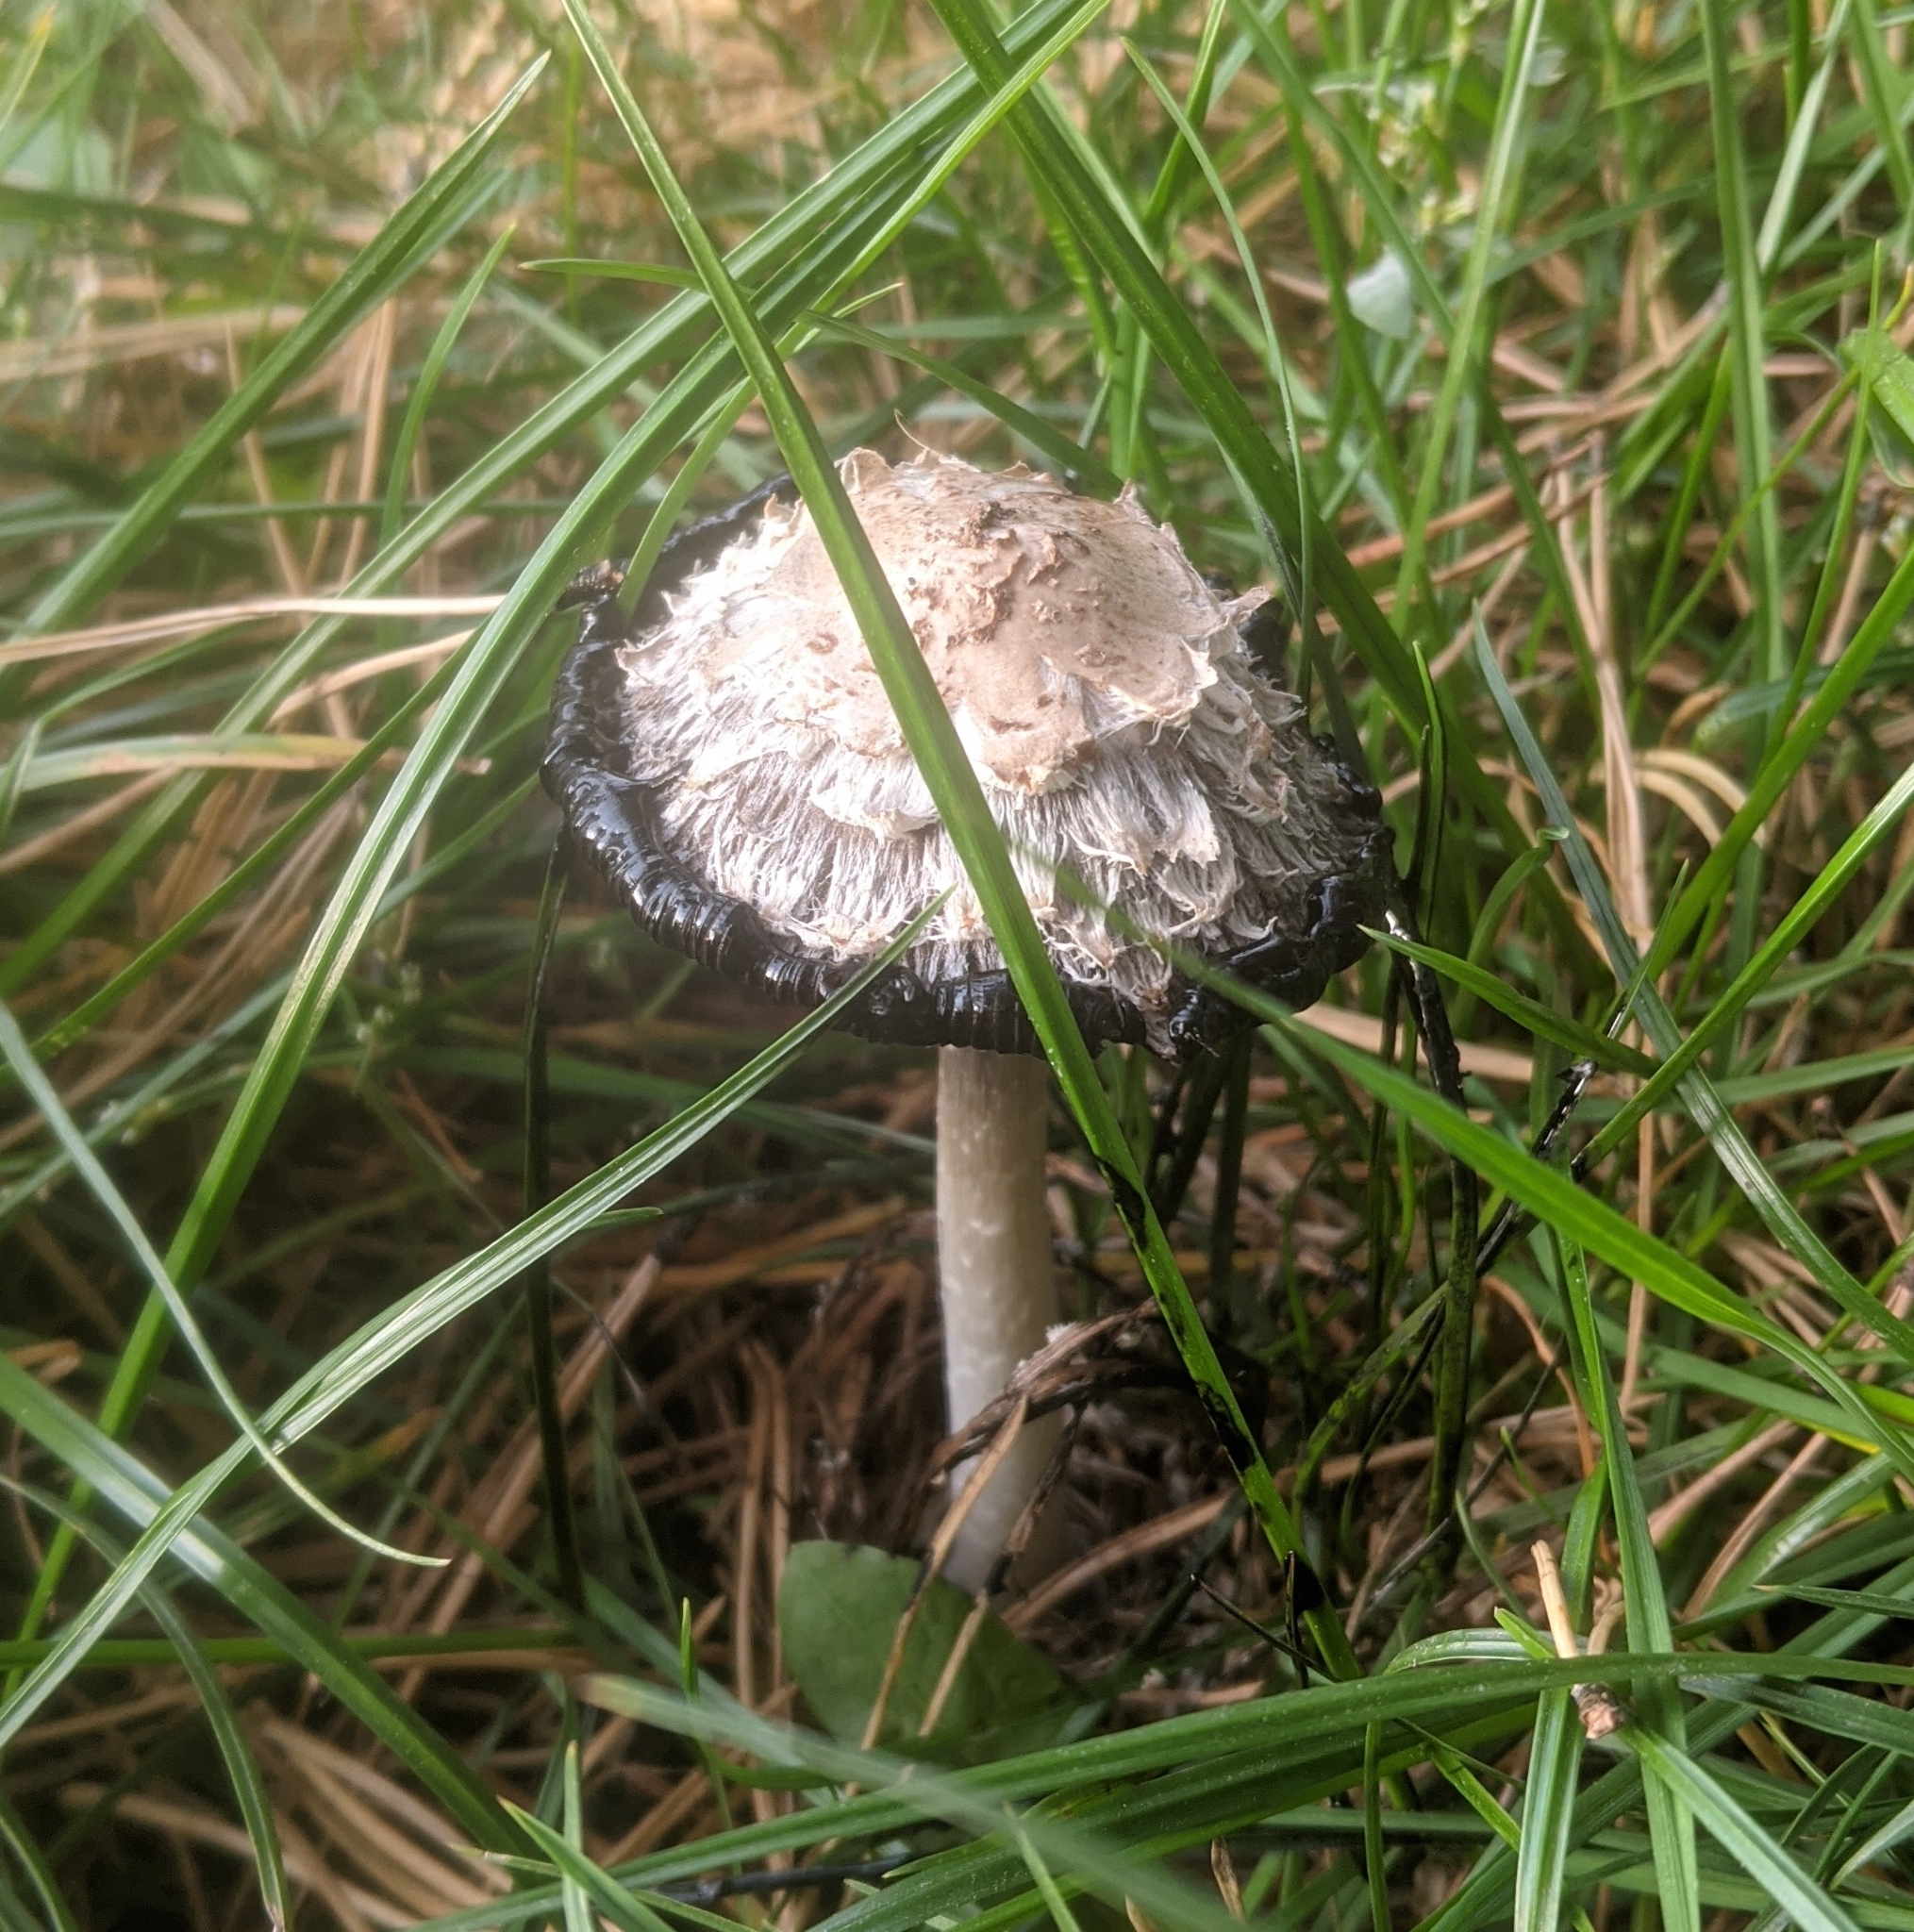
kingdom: Fungi
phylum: Basidiomycota
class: Agaricomycetes
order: Agaricales
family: Agaricaceae
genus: Coprinus
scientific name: Coprinus comatus
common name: Lawyer's wig
